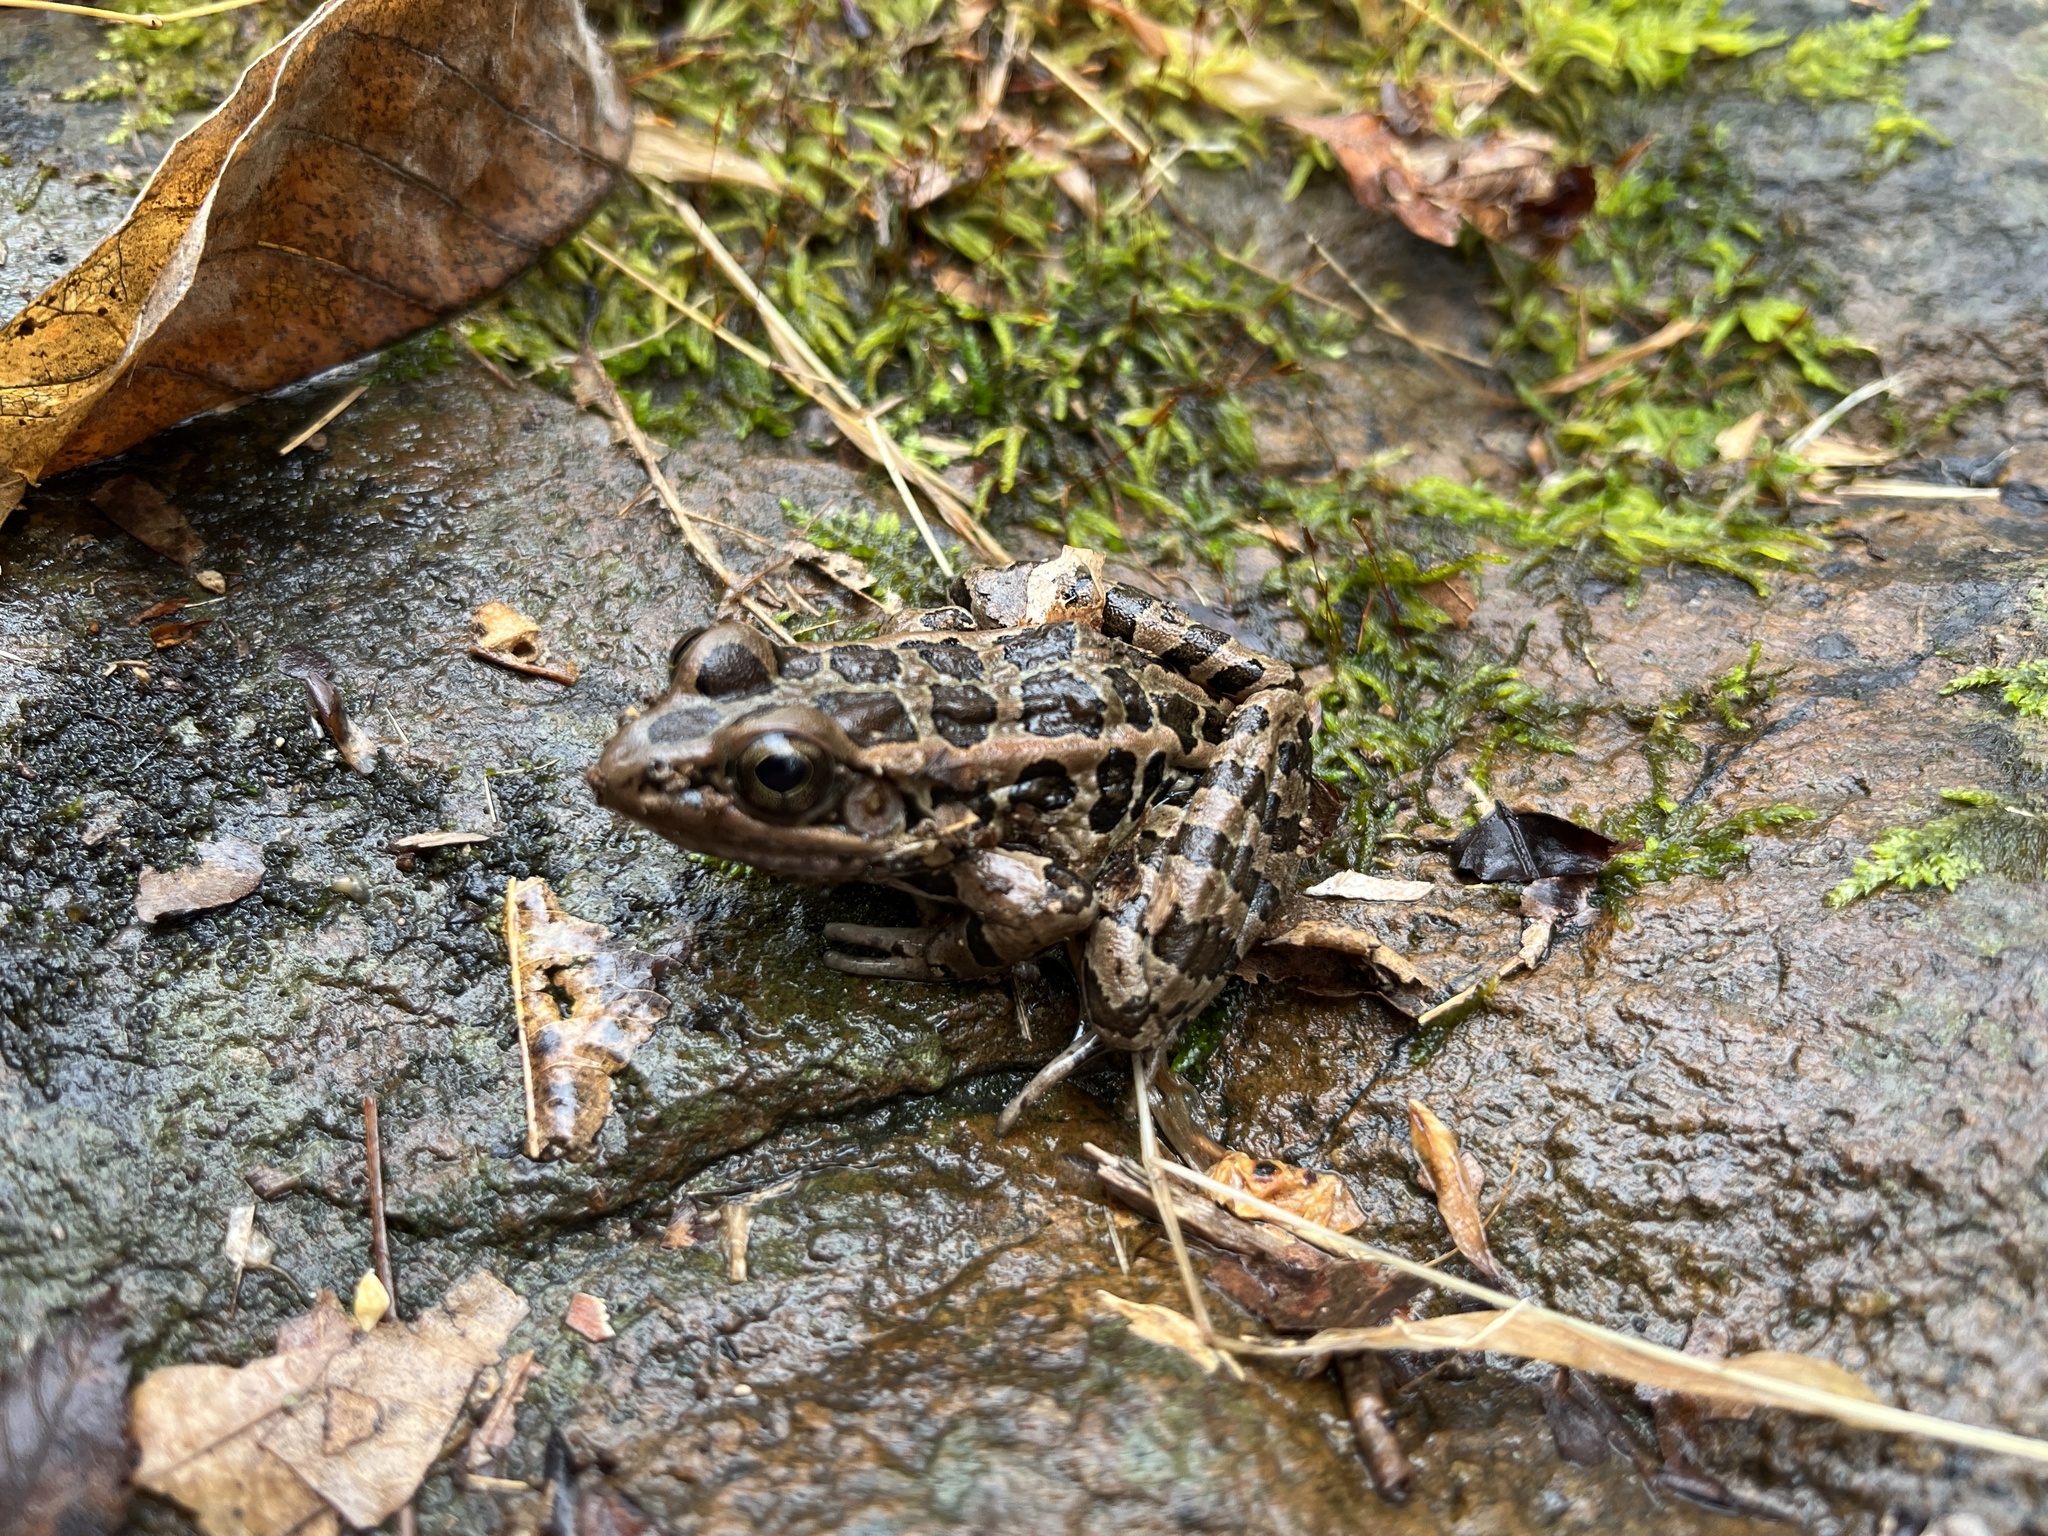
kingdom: Animalia
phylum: Chordata
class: Amphibia
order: Anura
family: Ranidae
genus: Lithobates
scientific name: Lithobates palustris
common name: Pickerel frog
